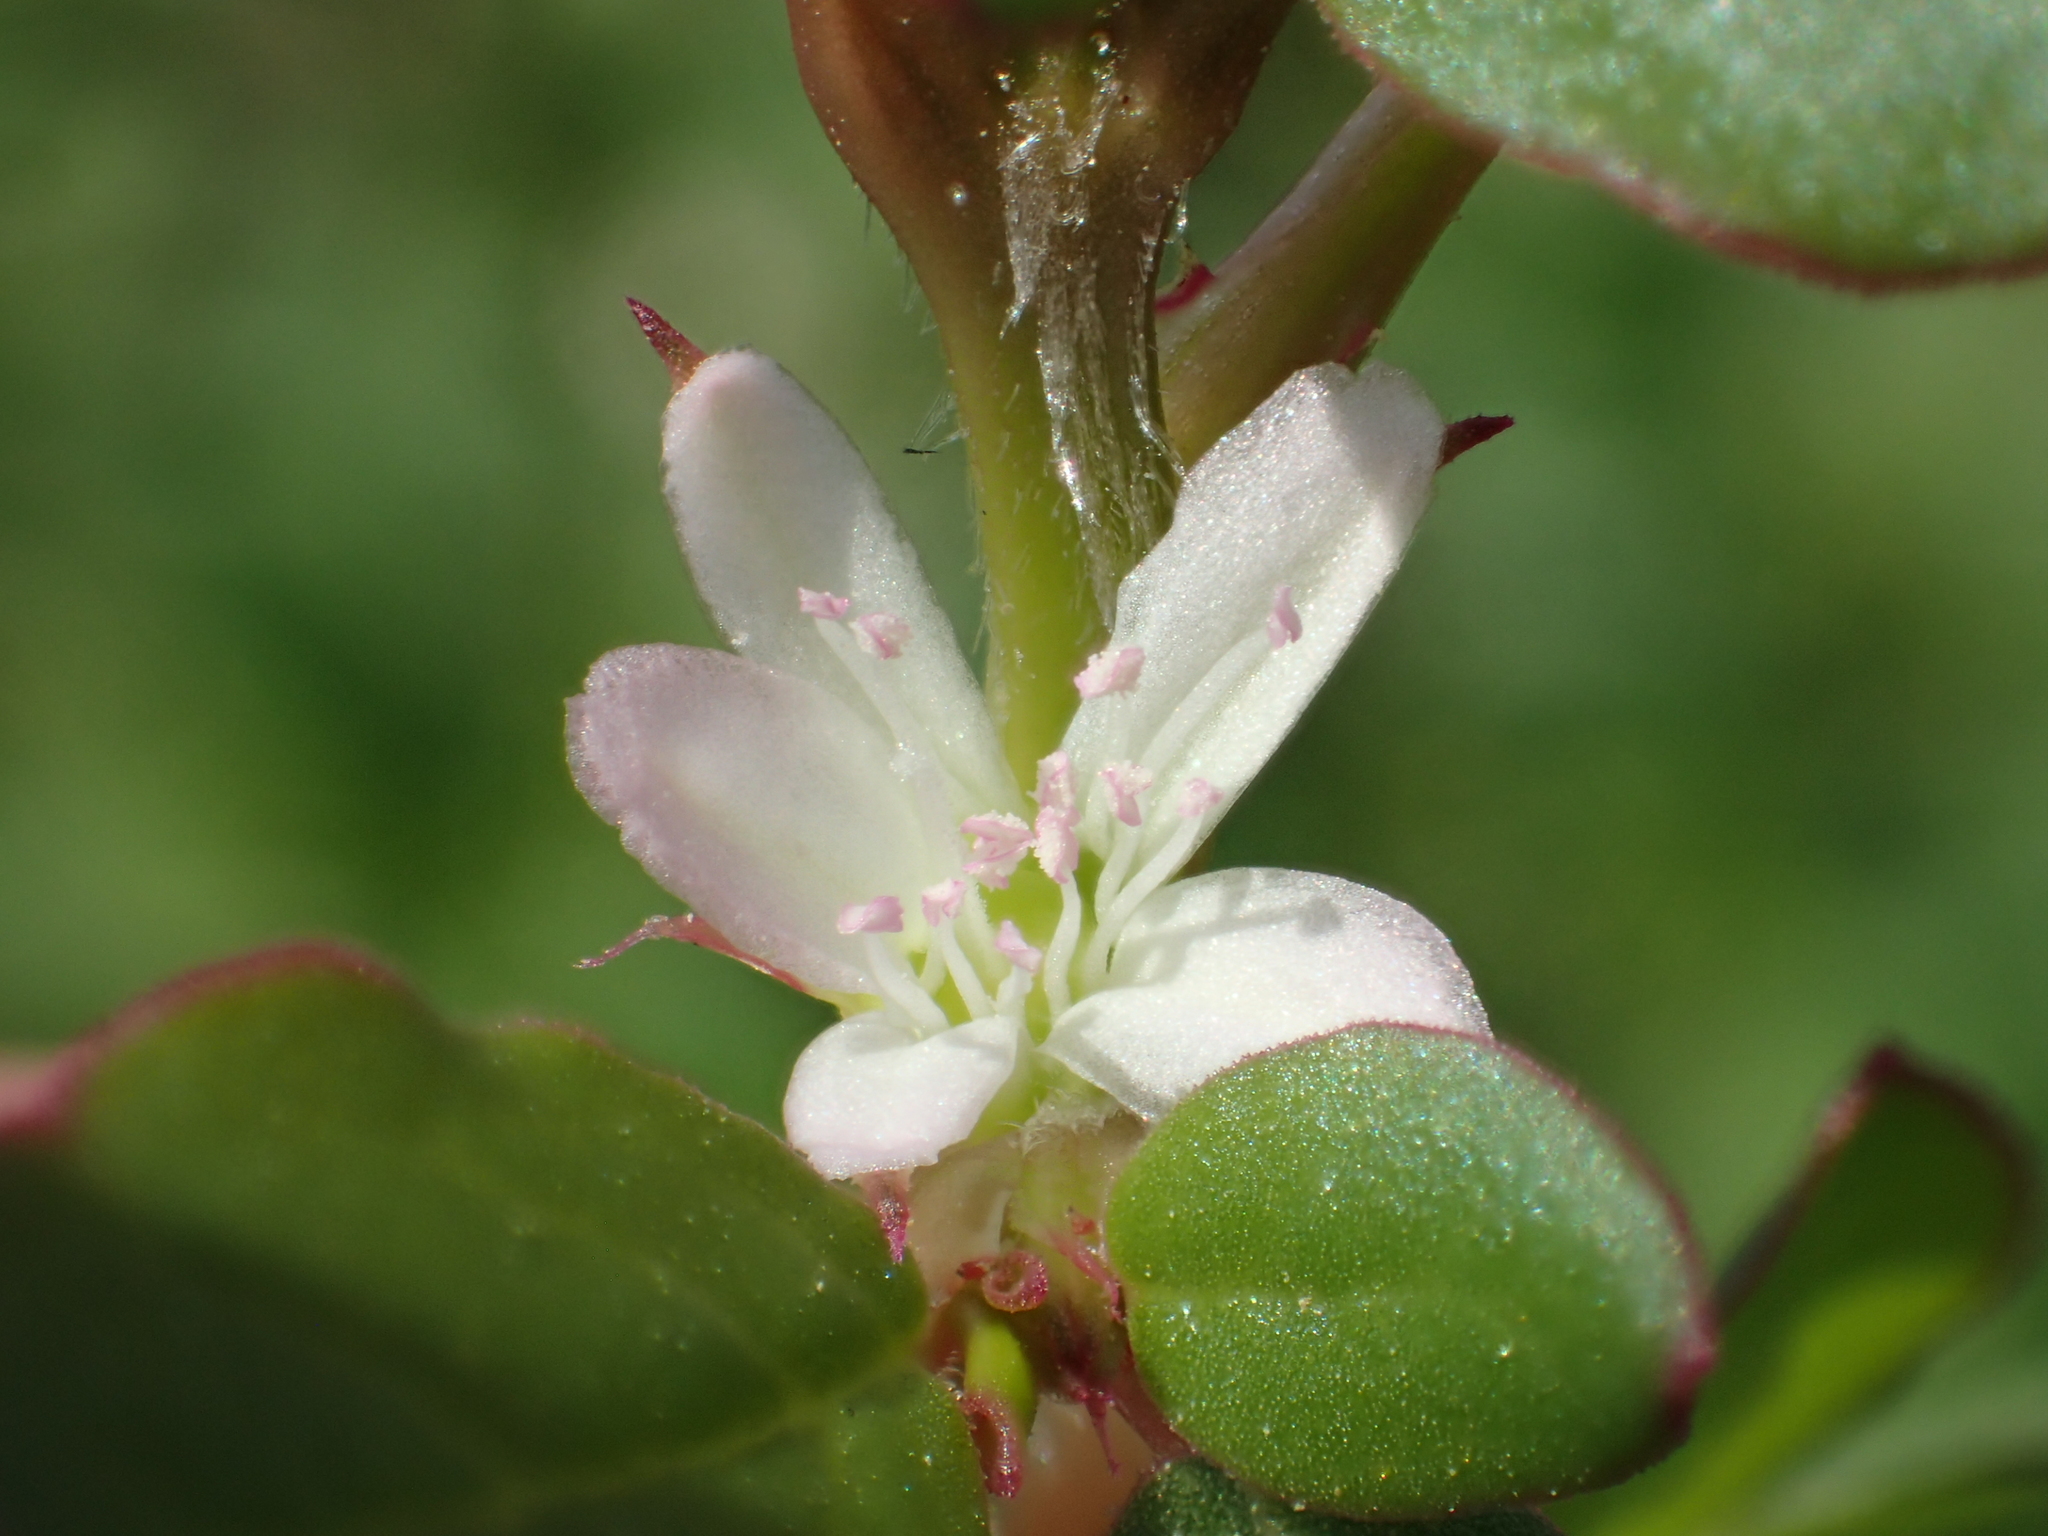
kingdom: Plantae
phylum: Tracheophyta
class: Magnoliopsida
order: Caryophyllales
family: Aizoaceae
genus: Trianthema
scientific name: Trianthema portulacastrum
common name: Desert horsepurslane
